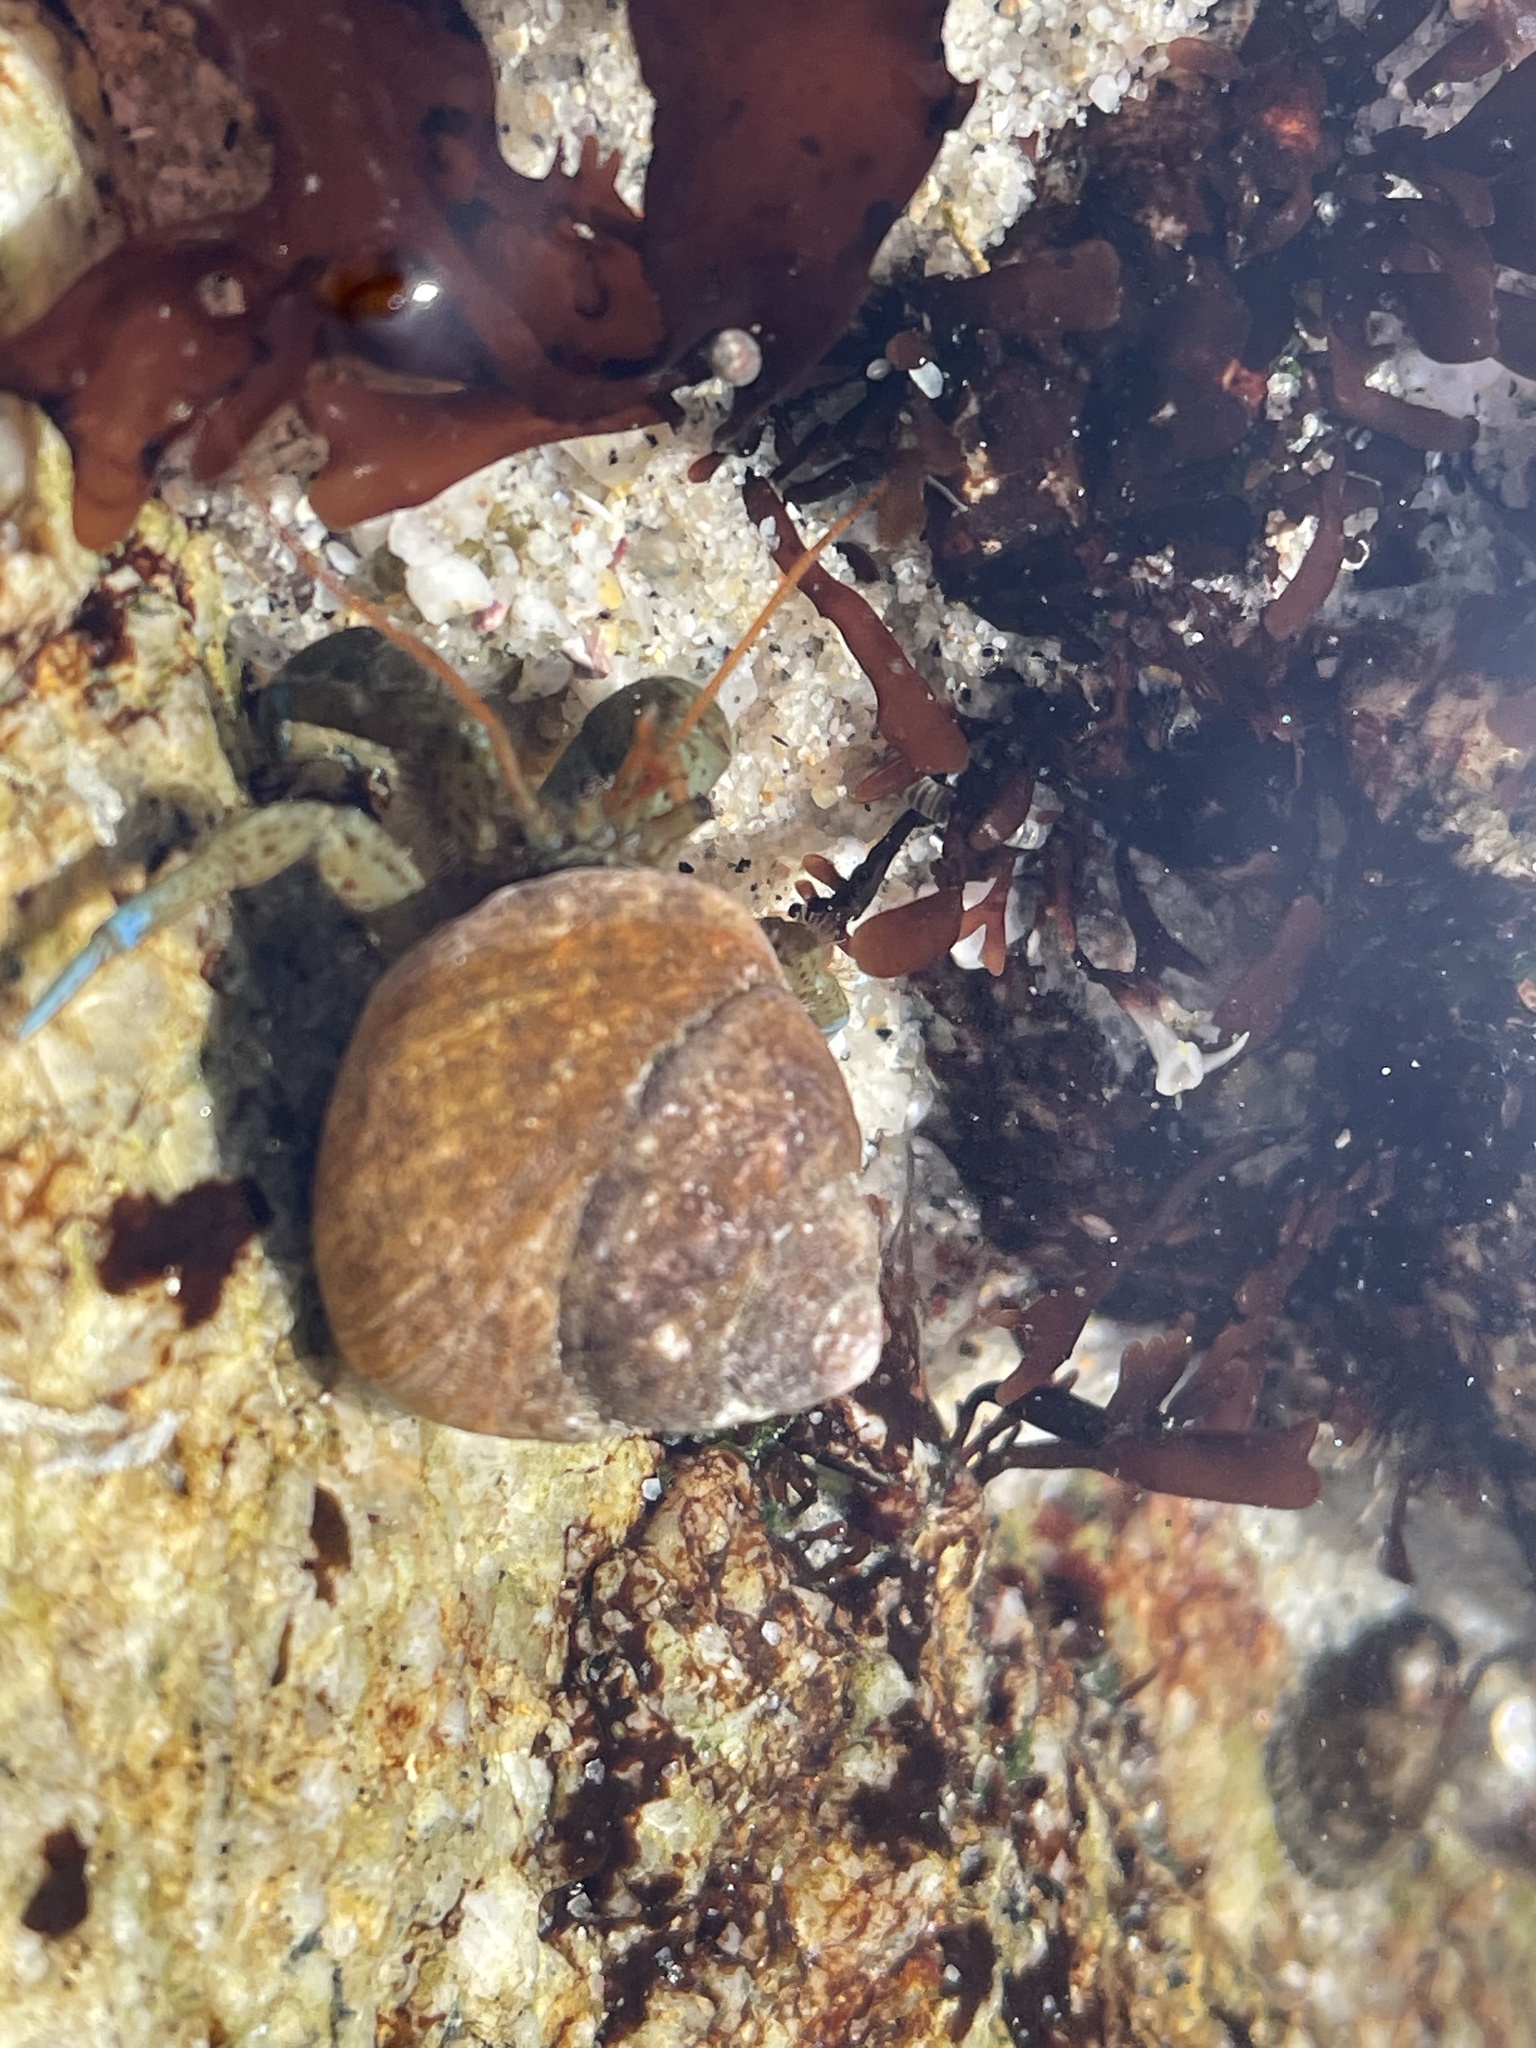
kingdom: Animalia
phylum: Arthropoda
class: Malacostraca
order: Decapoda
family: Paguridae
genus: Pagurus
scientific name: Pagurus samuelis
